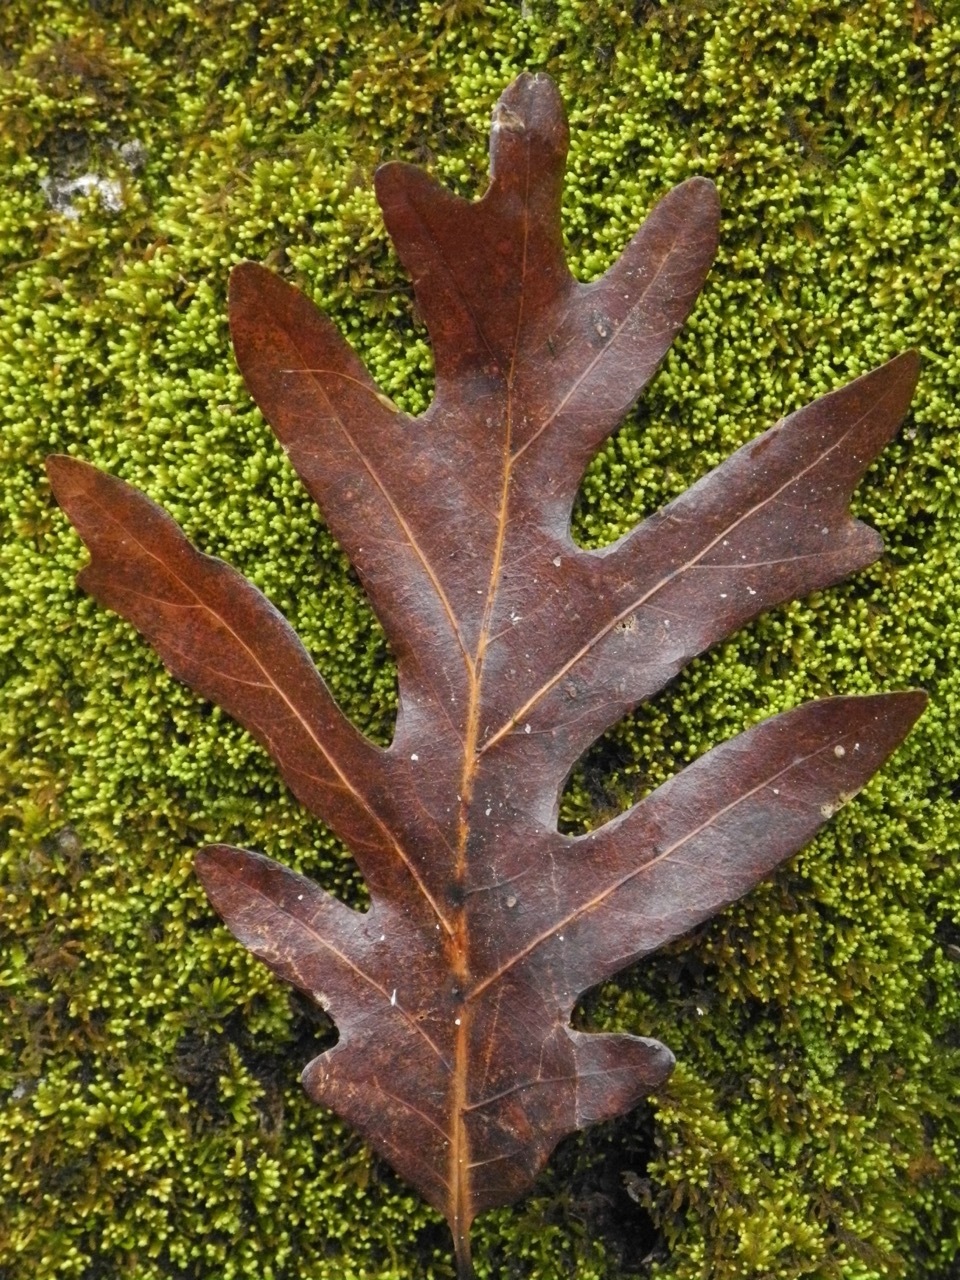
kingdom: Plantae
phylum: Tracheophyta
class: Magnoliopsida
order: Fagales
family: Fagaceae
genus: Quercus
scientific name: Quercus alba
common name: White oak
